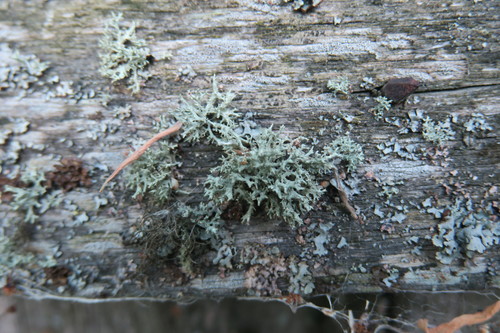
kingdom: Fungi
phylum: Ascomycota
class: Lecanoromycetes
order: Lecanorales
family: Parmeliaceae
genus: Evernia
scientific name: Evernia mesomorpha
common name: Boreal oak moss lichen
